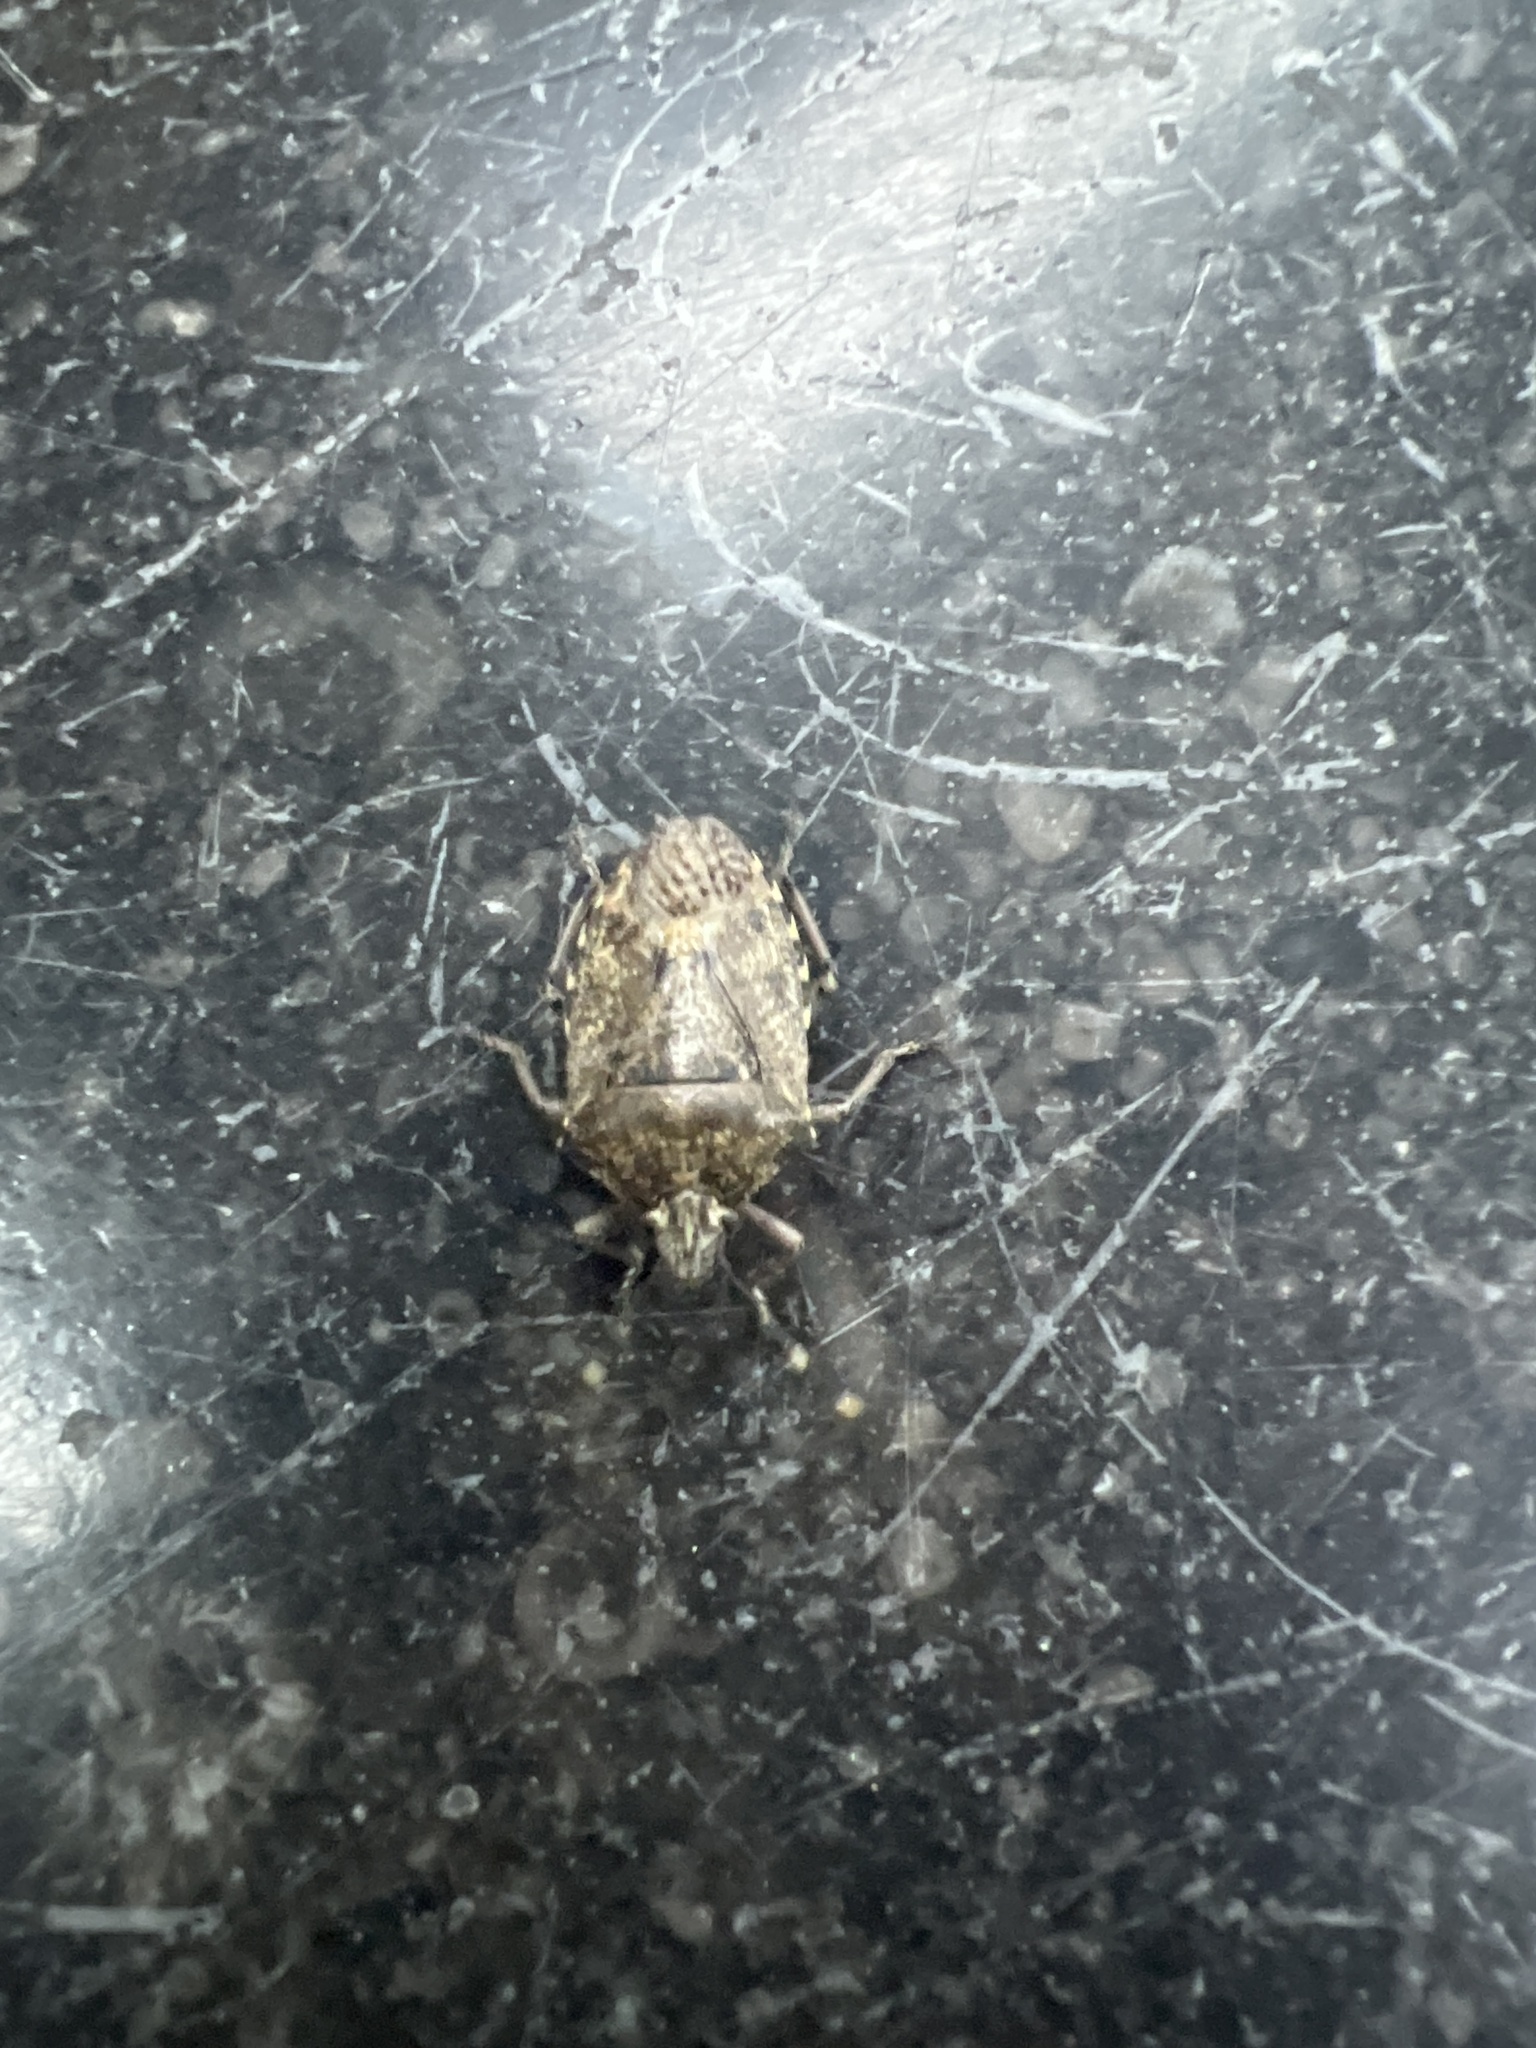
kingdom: Animalia
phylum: Arthropoda
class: Insecta
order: Hemiptera
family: Pentatomidae
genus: Rhaphigaster
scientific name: Rhaphigaster nebulosa
